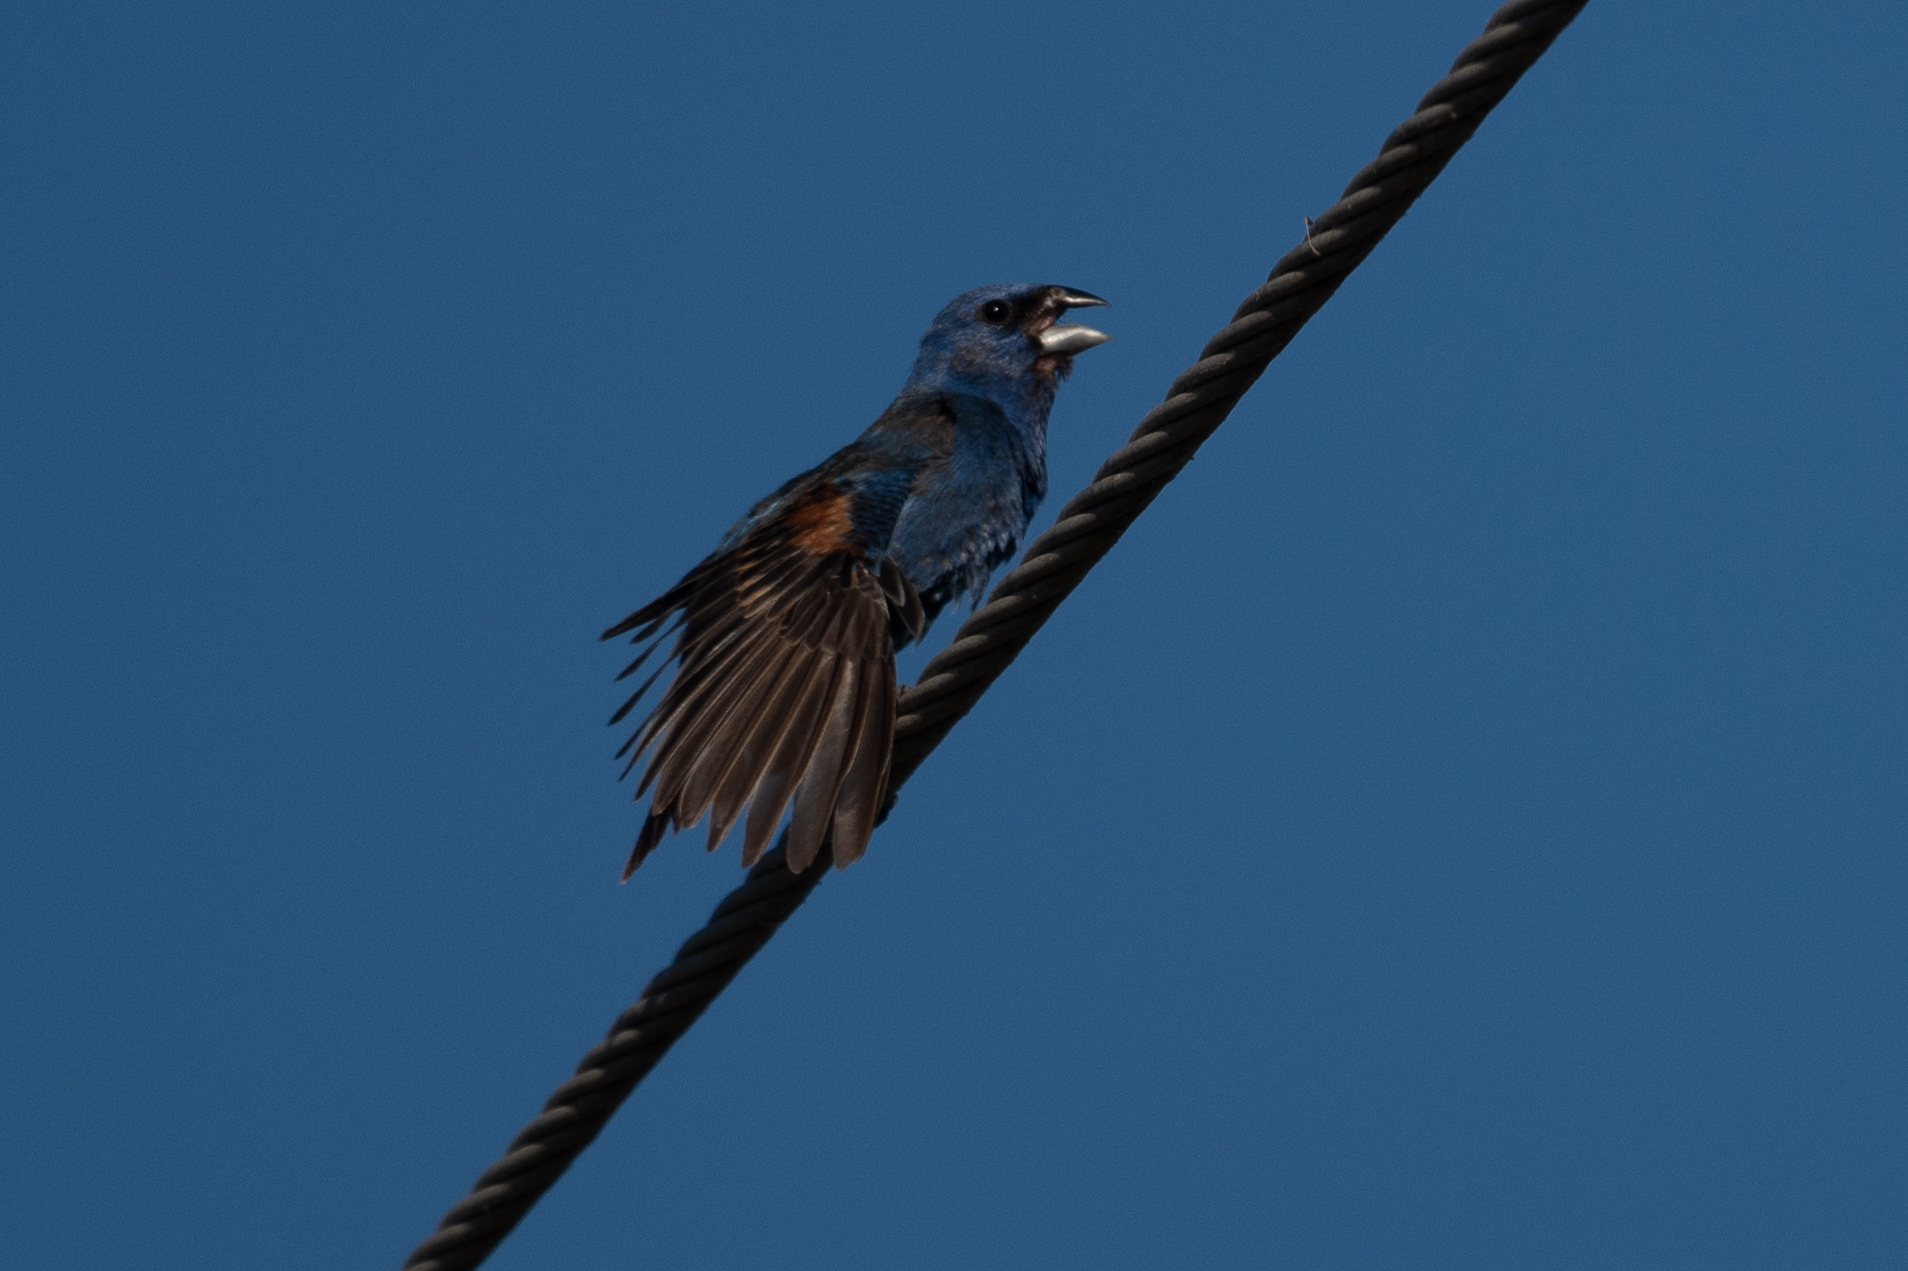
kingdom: Animalia
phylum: Chordata
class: Aves
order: Passeriformes
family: Cardinalidae
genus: Passerina
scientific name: Passerina caerulea
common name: Blue grosbeak
